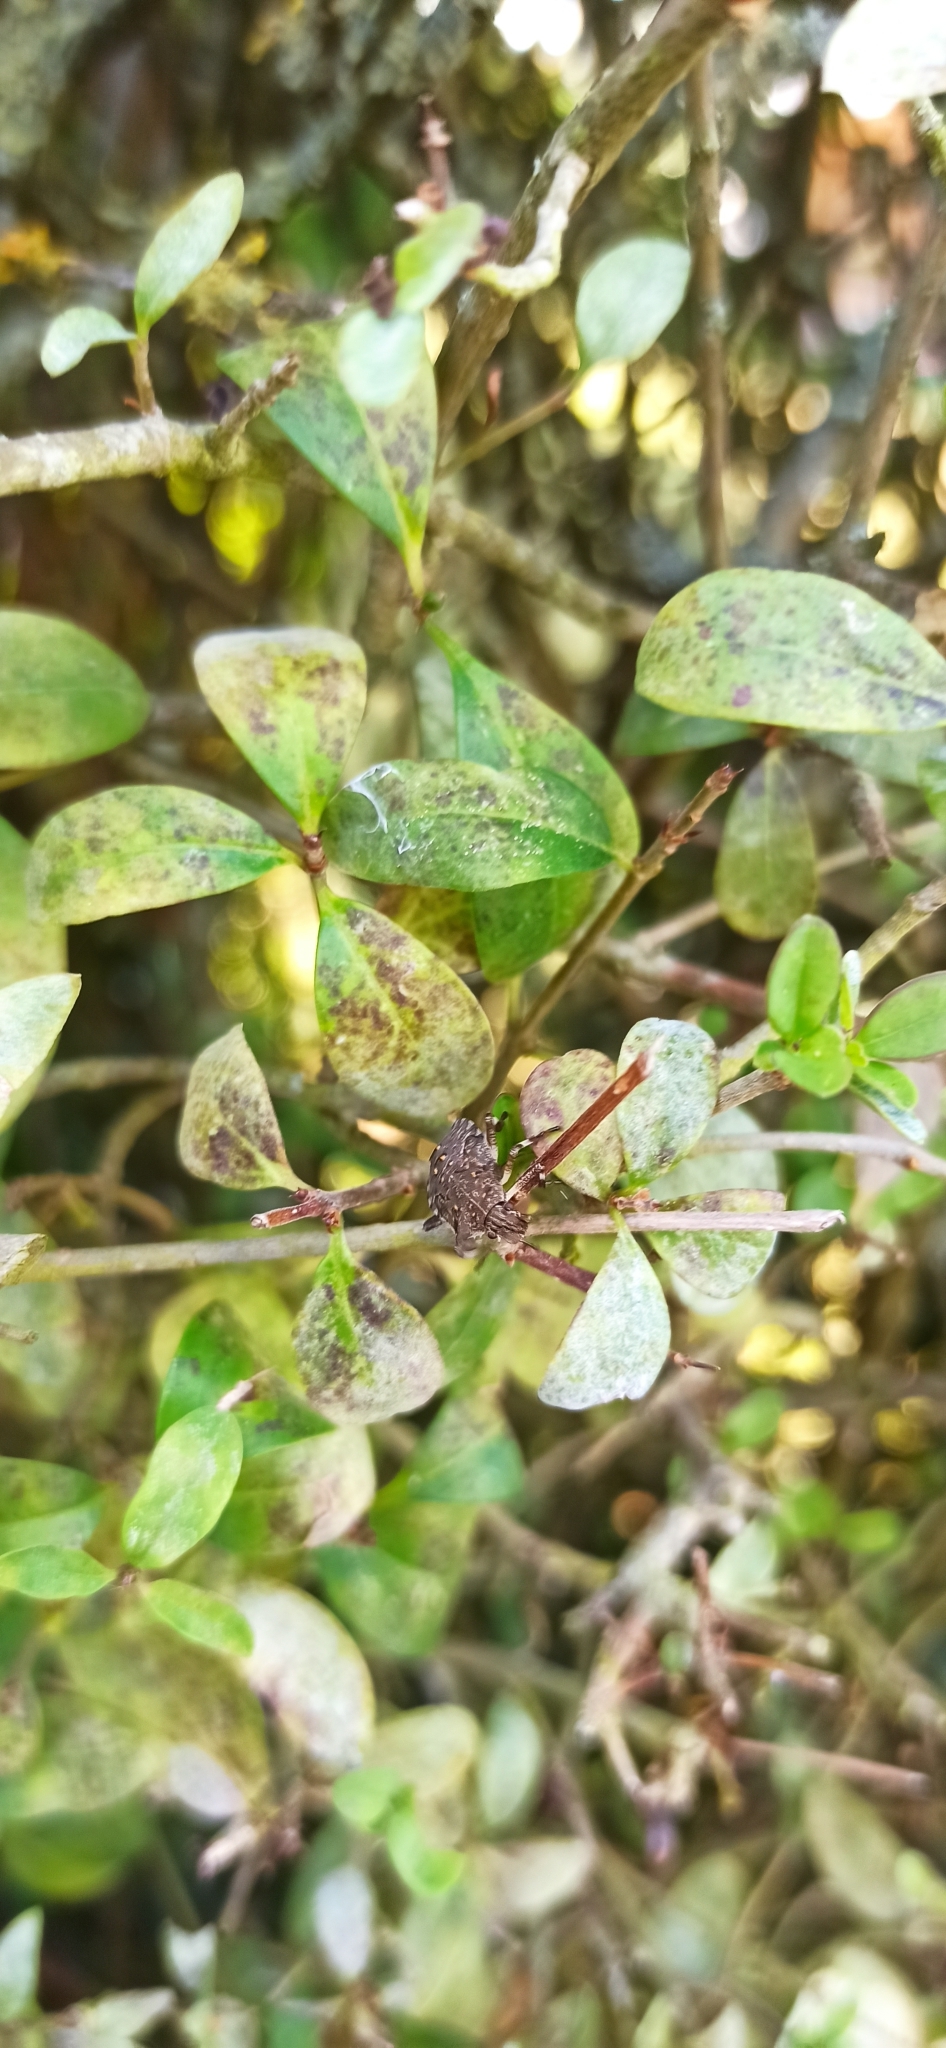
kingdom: Animalia
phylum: Arthropoda
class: Insecta
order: Hemiptera
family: Pentatomidae
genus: Halyomorpha
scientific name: Halyomorpha halys
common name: Brown marmorated stink bug
